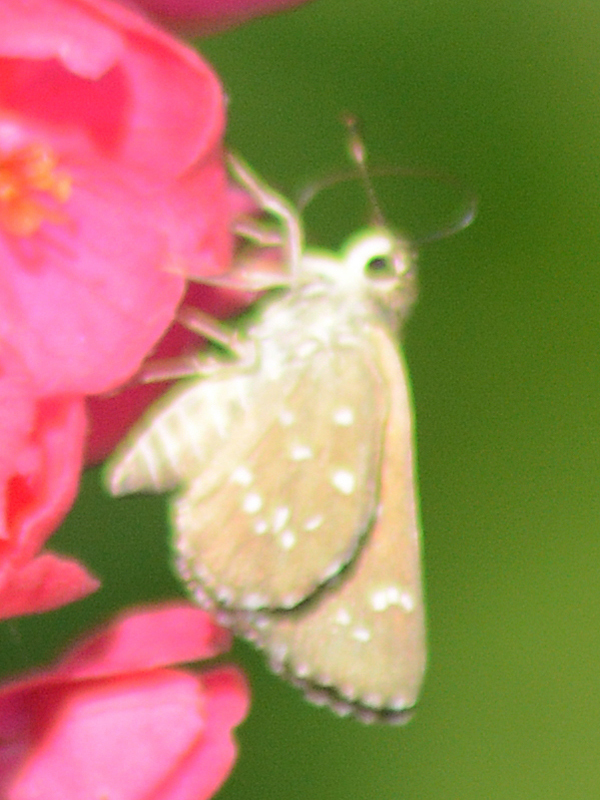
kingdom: Animalia
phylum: Arthropoda
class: Insecta
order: Lepidoptera
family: Hesperiidae
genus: Mastor
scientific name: Mastor tolteca
